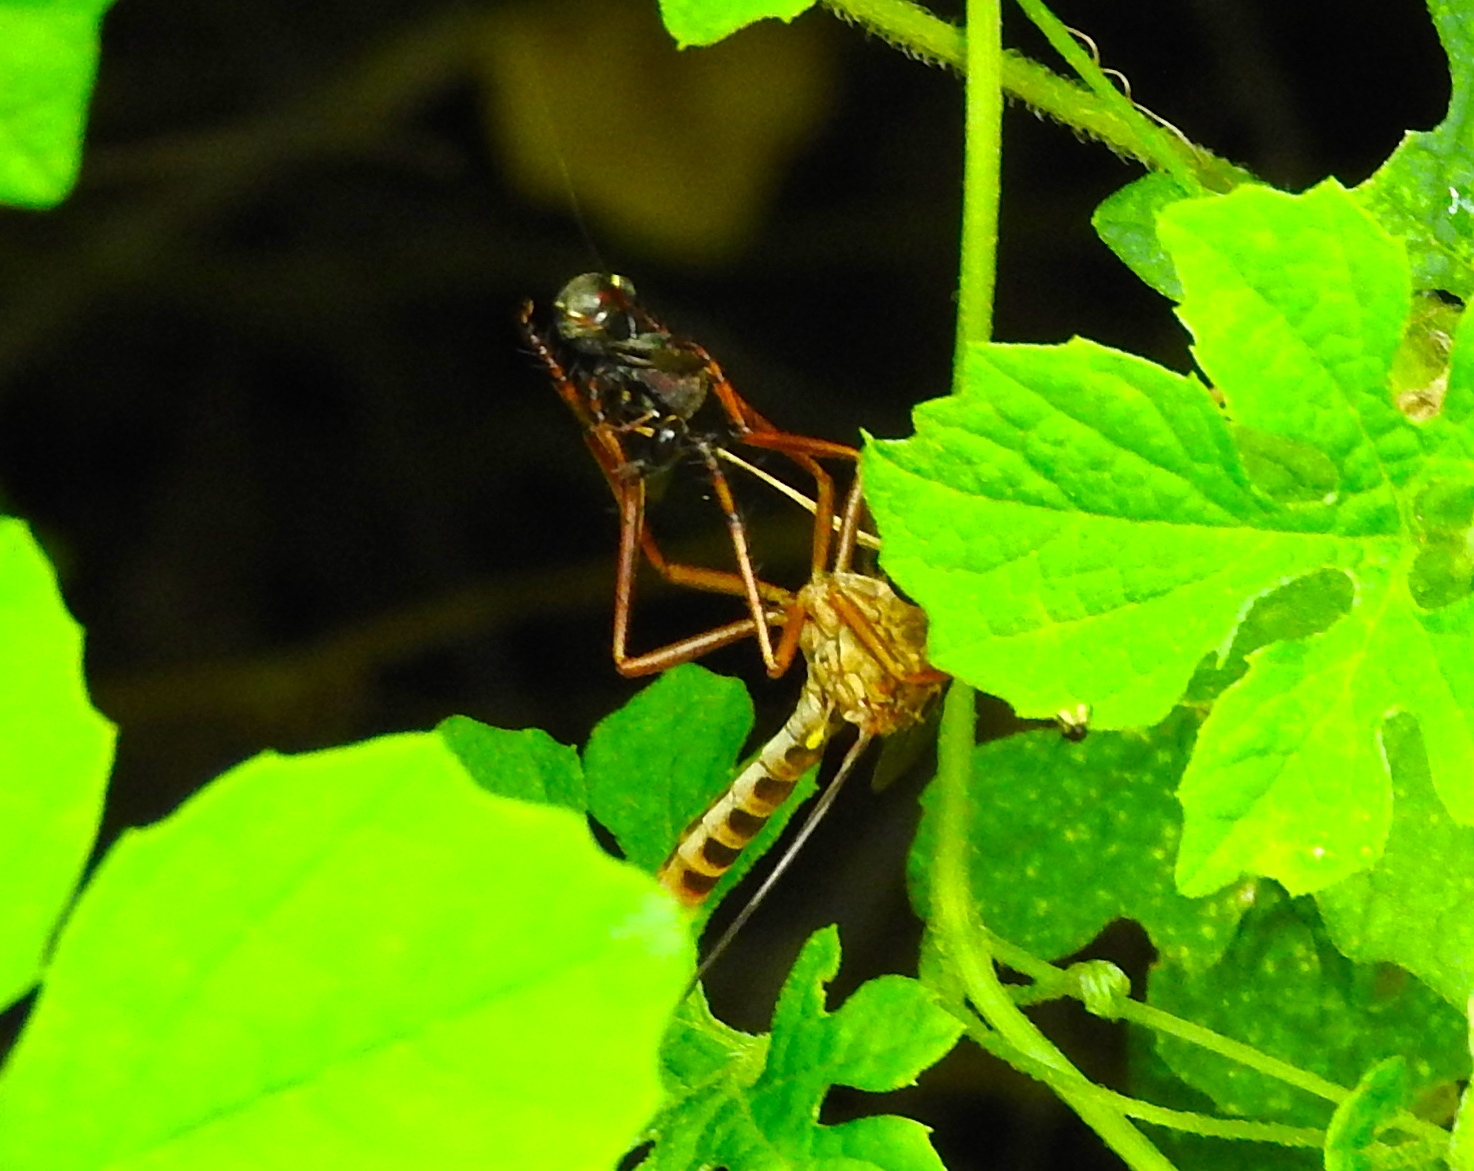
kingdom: Animalia
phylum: Arthropoda
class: Insecta
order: Diptera
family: Asilidae
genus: Diogmites
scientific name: Diogmites
